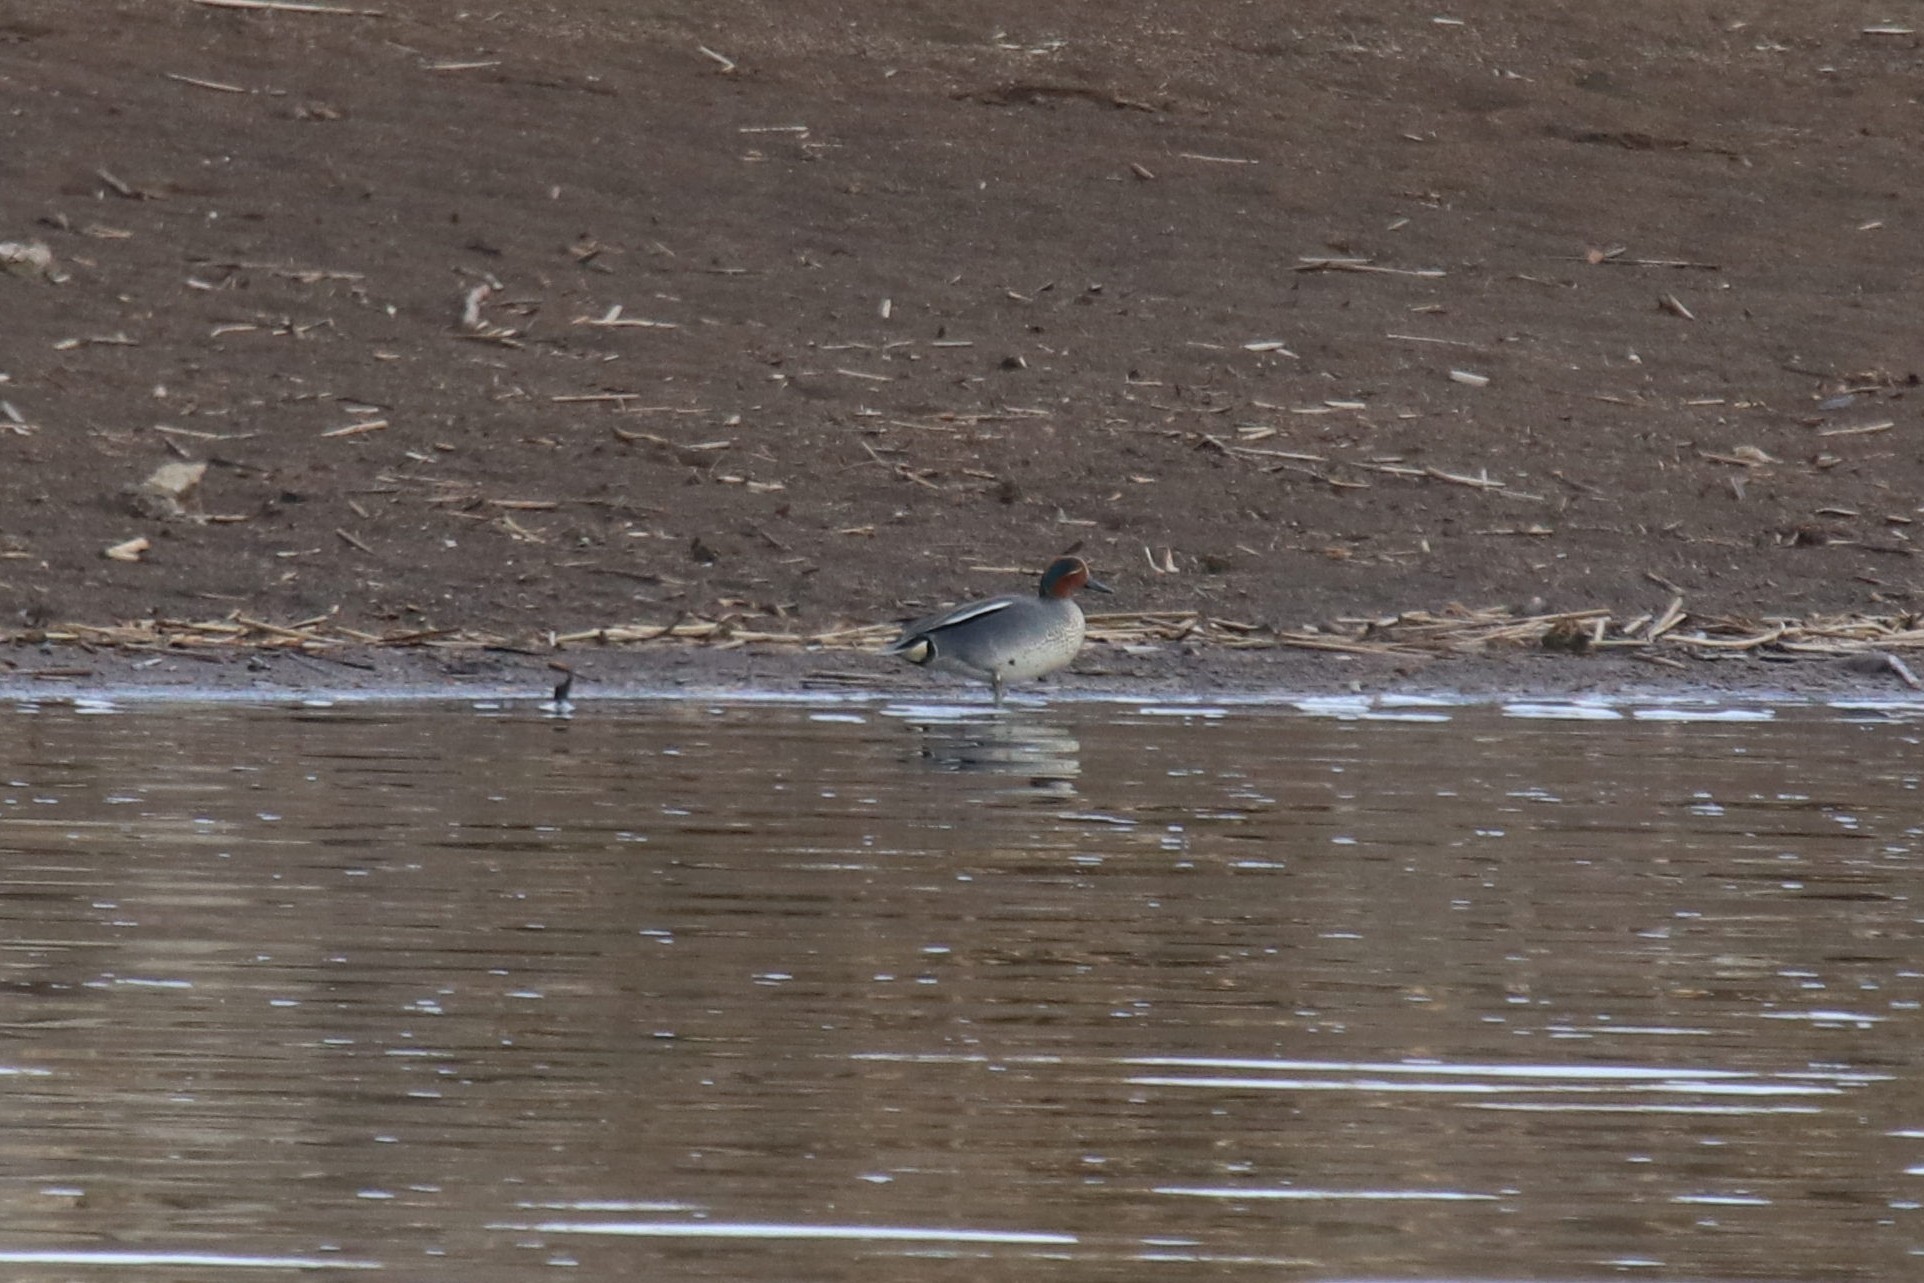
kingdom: Animalia
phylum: Chordata
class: Aves
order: Anseriformes
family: Anatidae
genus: Anas
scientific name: Anas crecca
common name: Eurasian teal
